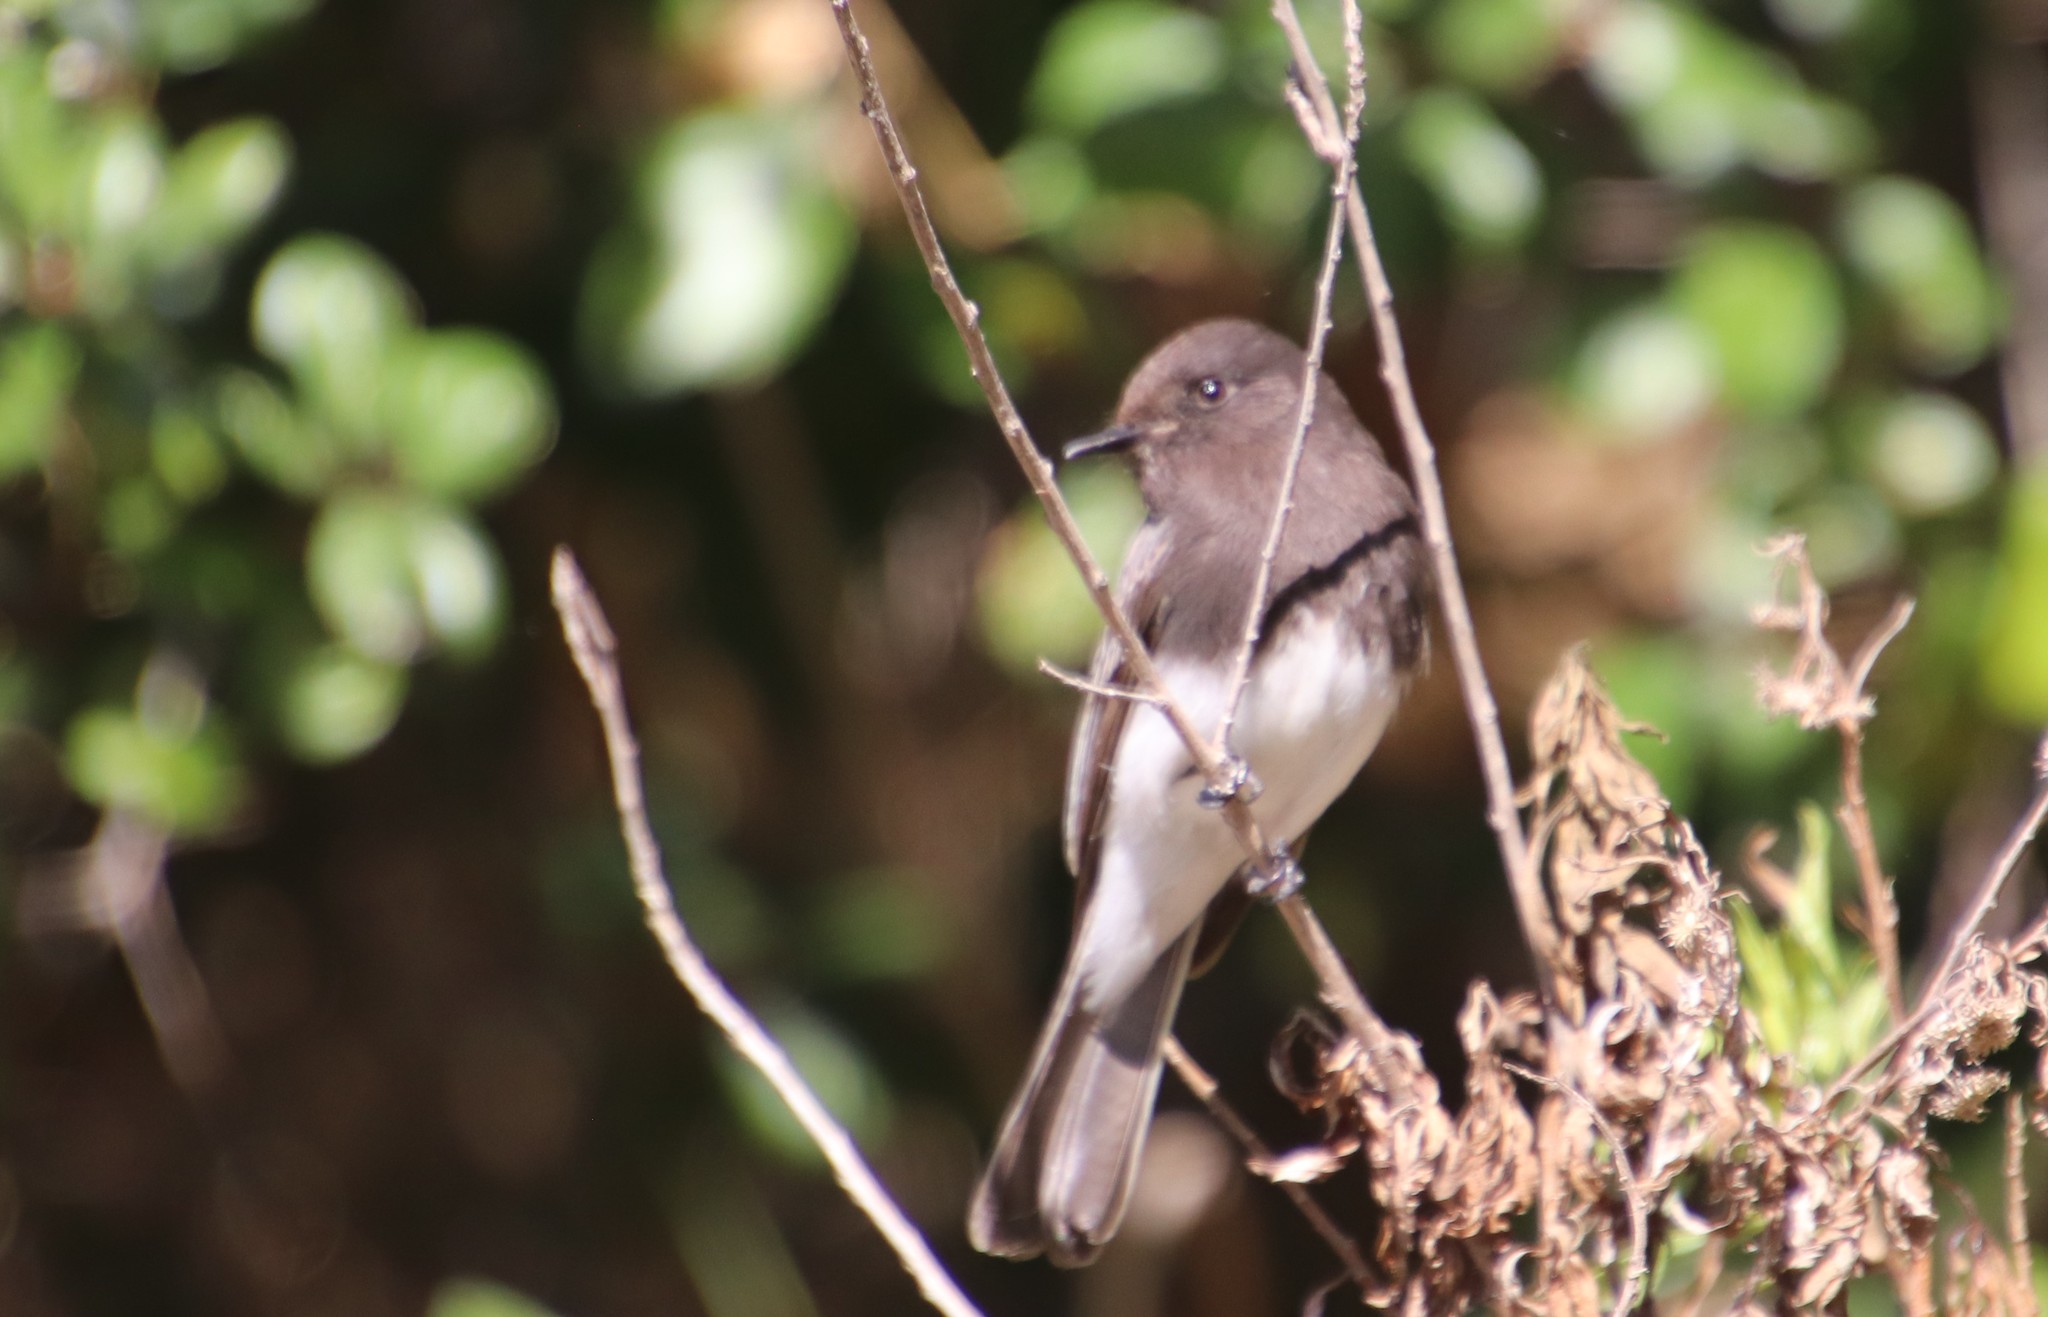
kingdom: Animalia
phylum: Chordata
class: Aves
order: Passeriformes
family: Tyrannidae
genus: Sayornis
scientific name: Sayornis nigricans
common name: Black phoebe
